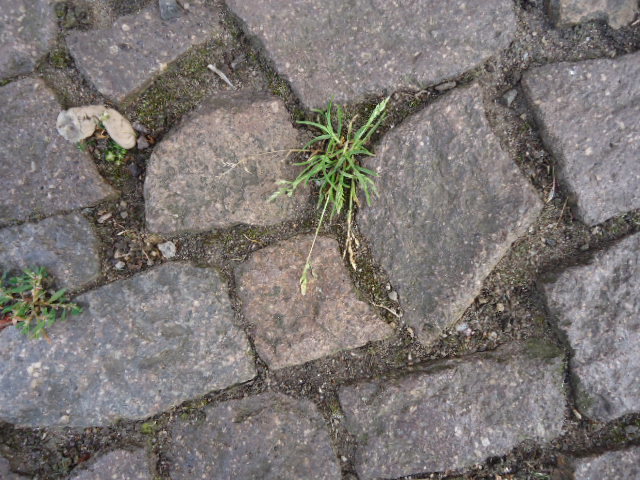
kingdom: Plantae
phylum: Tracheophyta
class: Liliopsida
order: Poales
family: Poaceae
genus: Poa
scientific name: Poa annua
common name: Annual bluegrass
